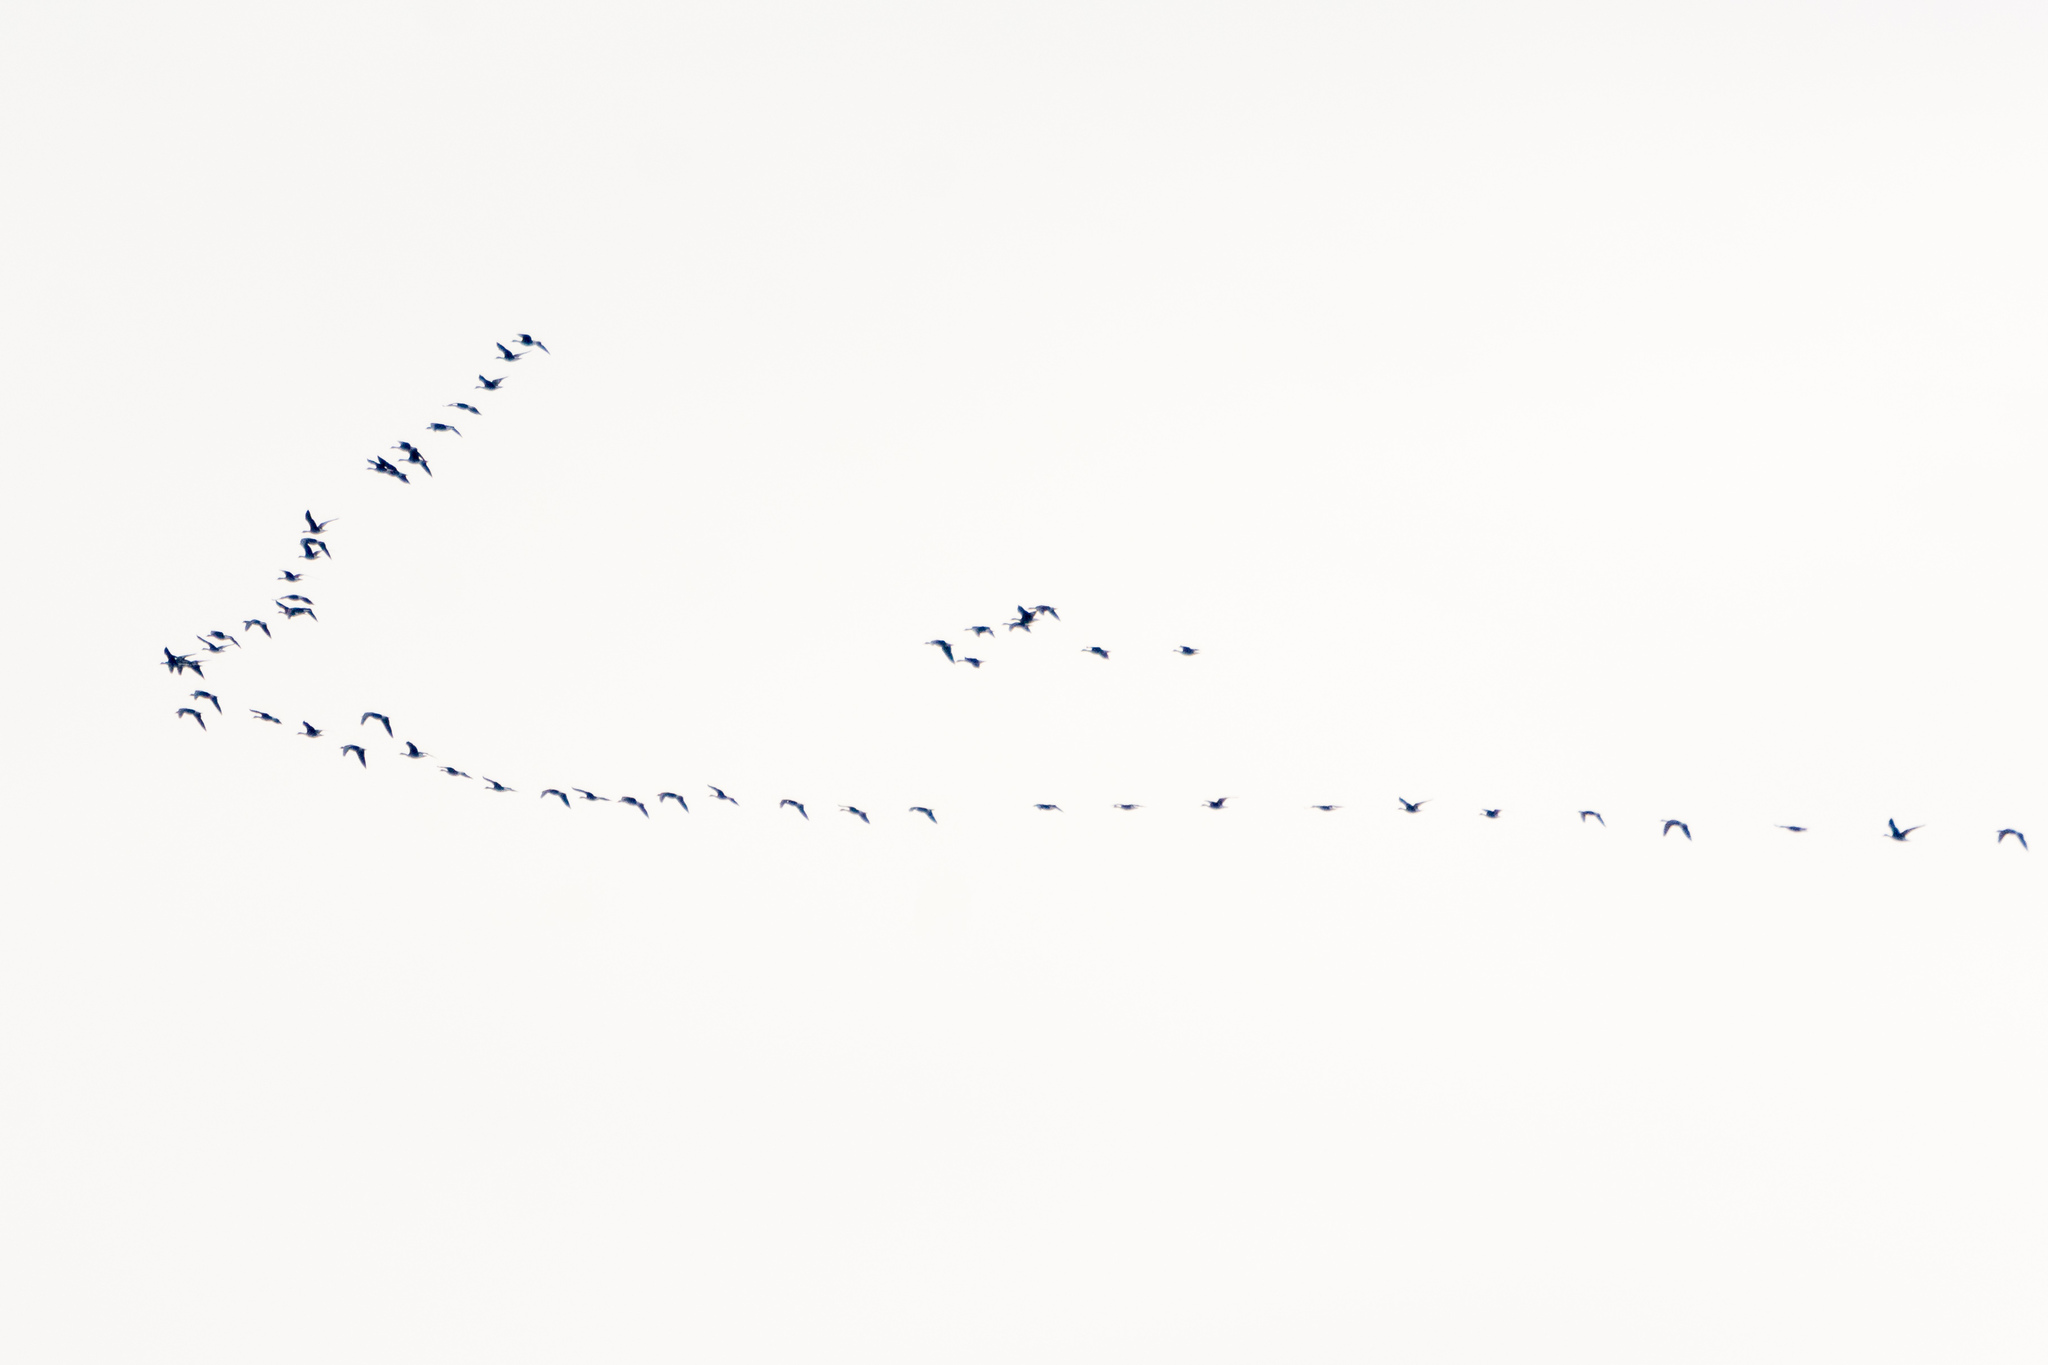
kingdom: Animalia
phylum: Chordata
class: Aves
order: Anseriformes
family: Anatidae
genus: Anser
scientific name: Anser fabalis
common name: Bean goose
